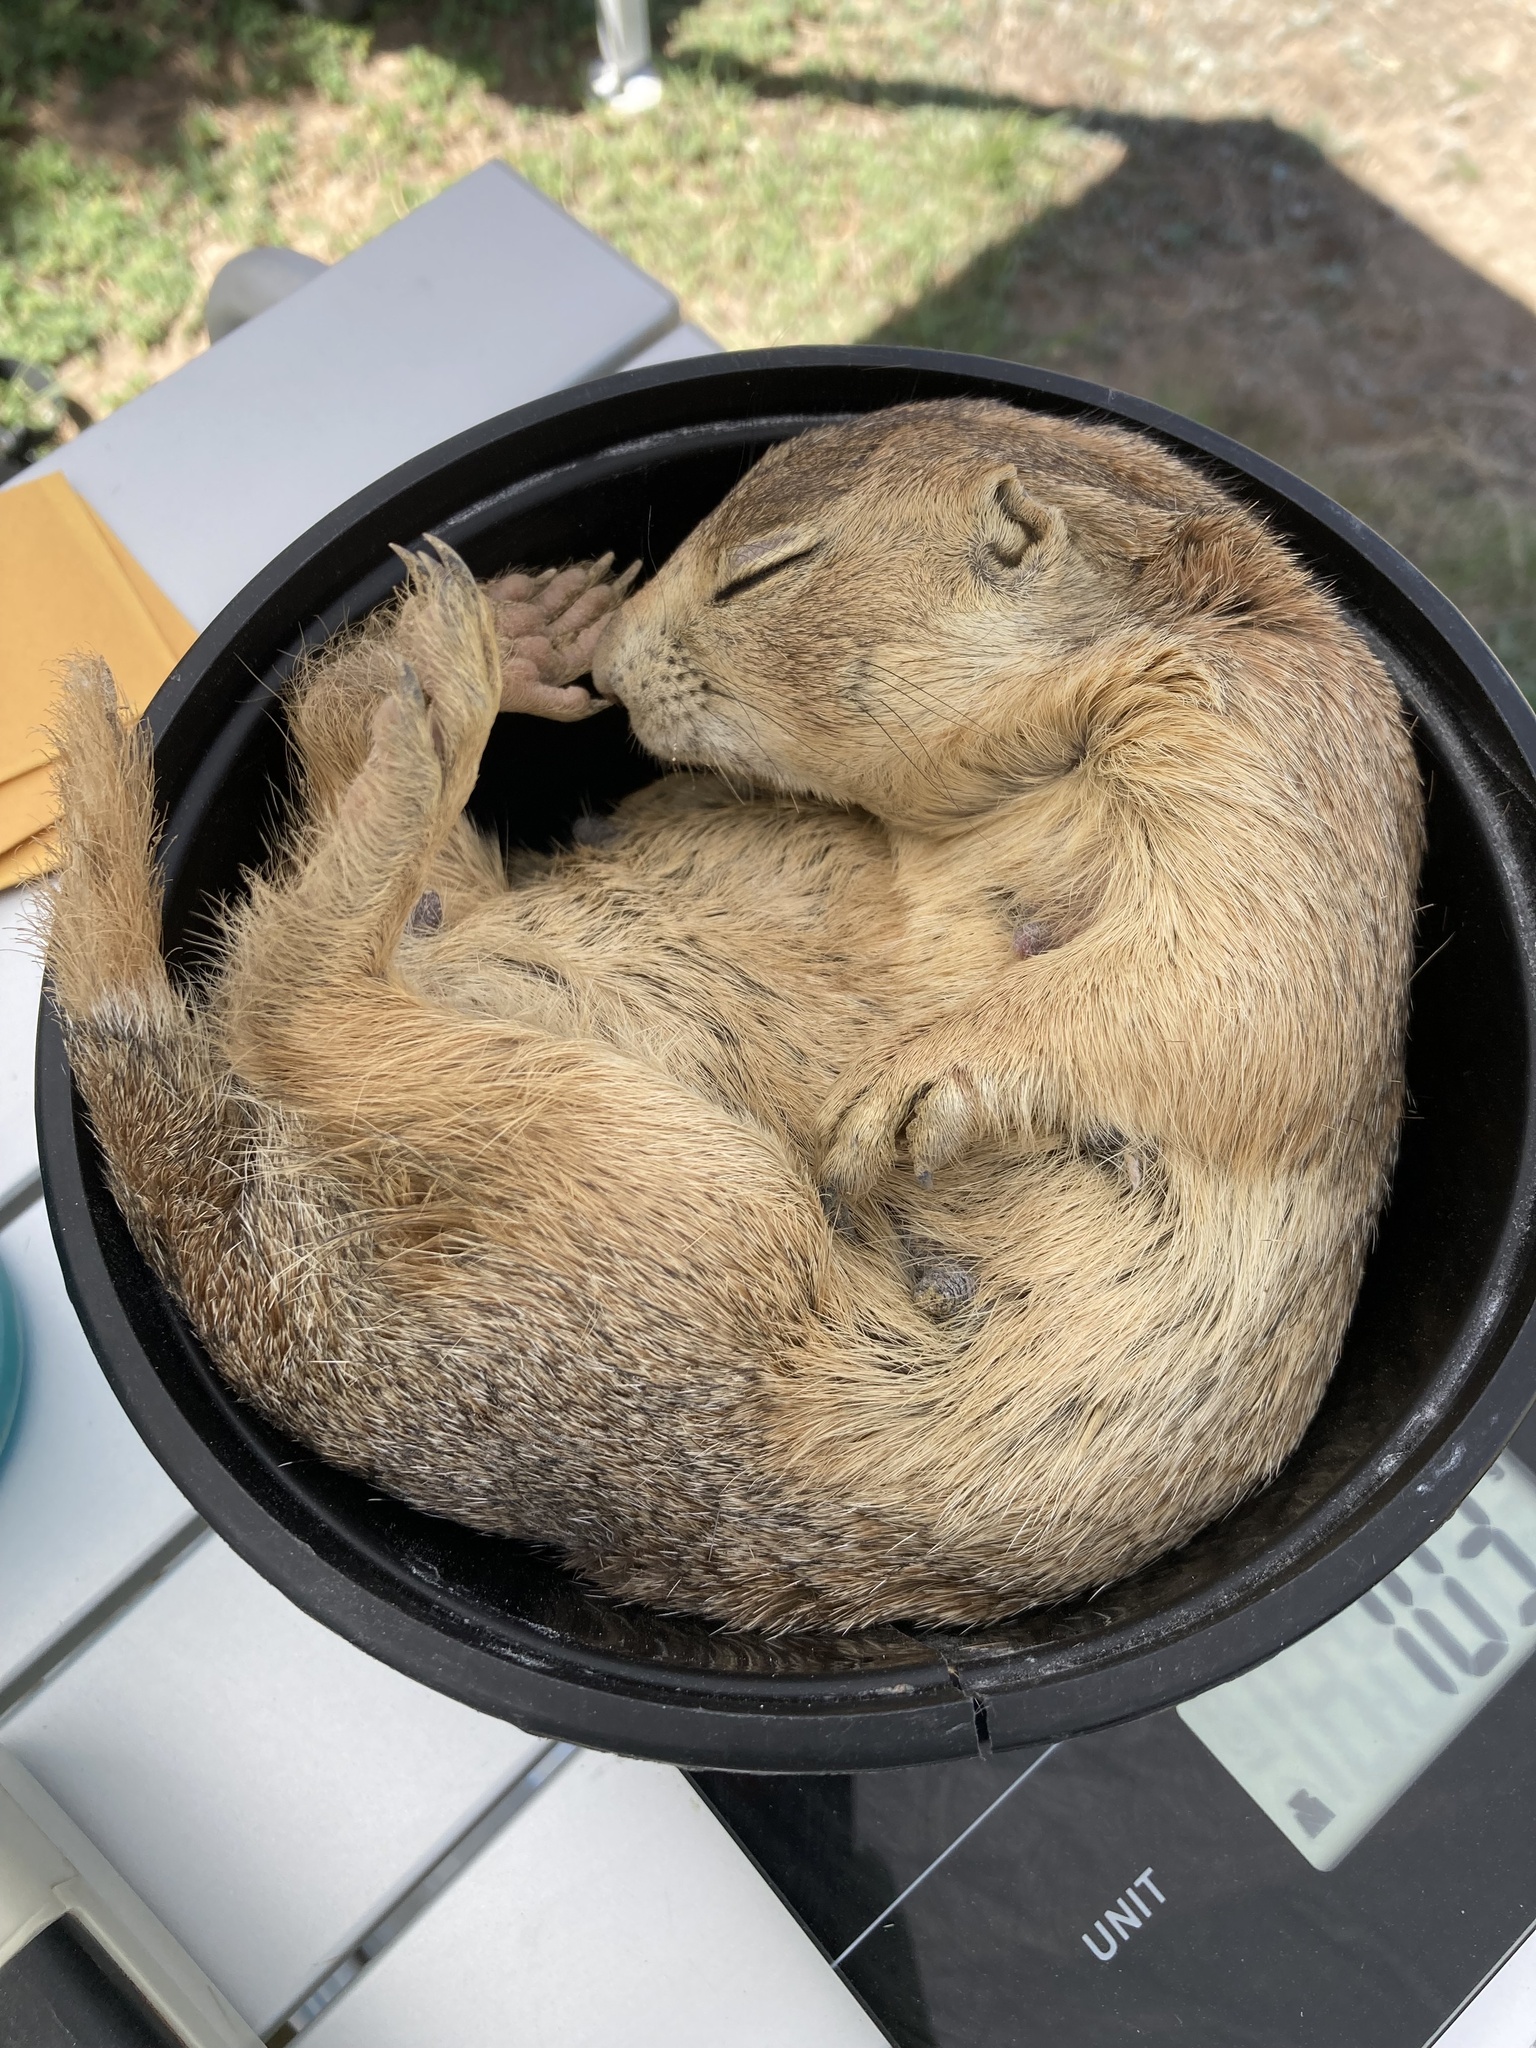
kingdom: Animalia
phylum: Chordata
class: Mammalia
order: Rodentia
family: Sciuridae
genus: Cynomys
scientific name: Cynomys gunnisoni
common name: Gunnison's prairie dog
